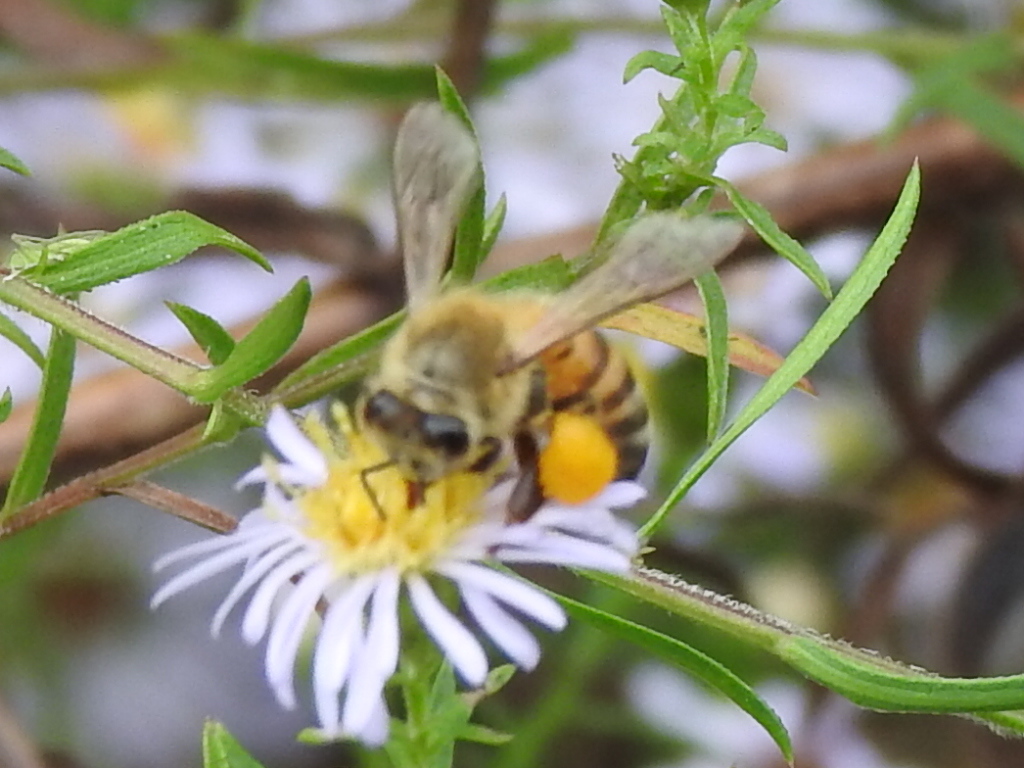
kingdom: Animalia
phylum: Arthropoda
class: Insecta
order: Hymenoptera
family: Apidae
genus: Apis
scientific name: Apis mellifera
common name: Honey bee
